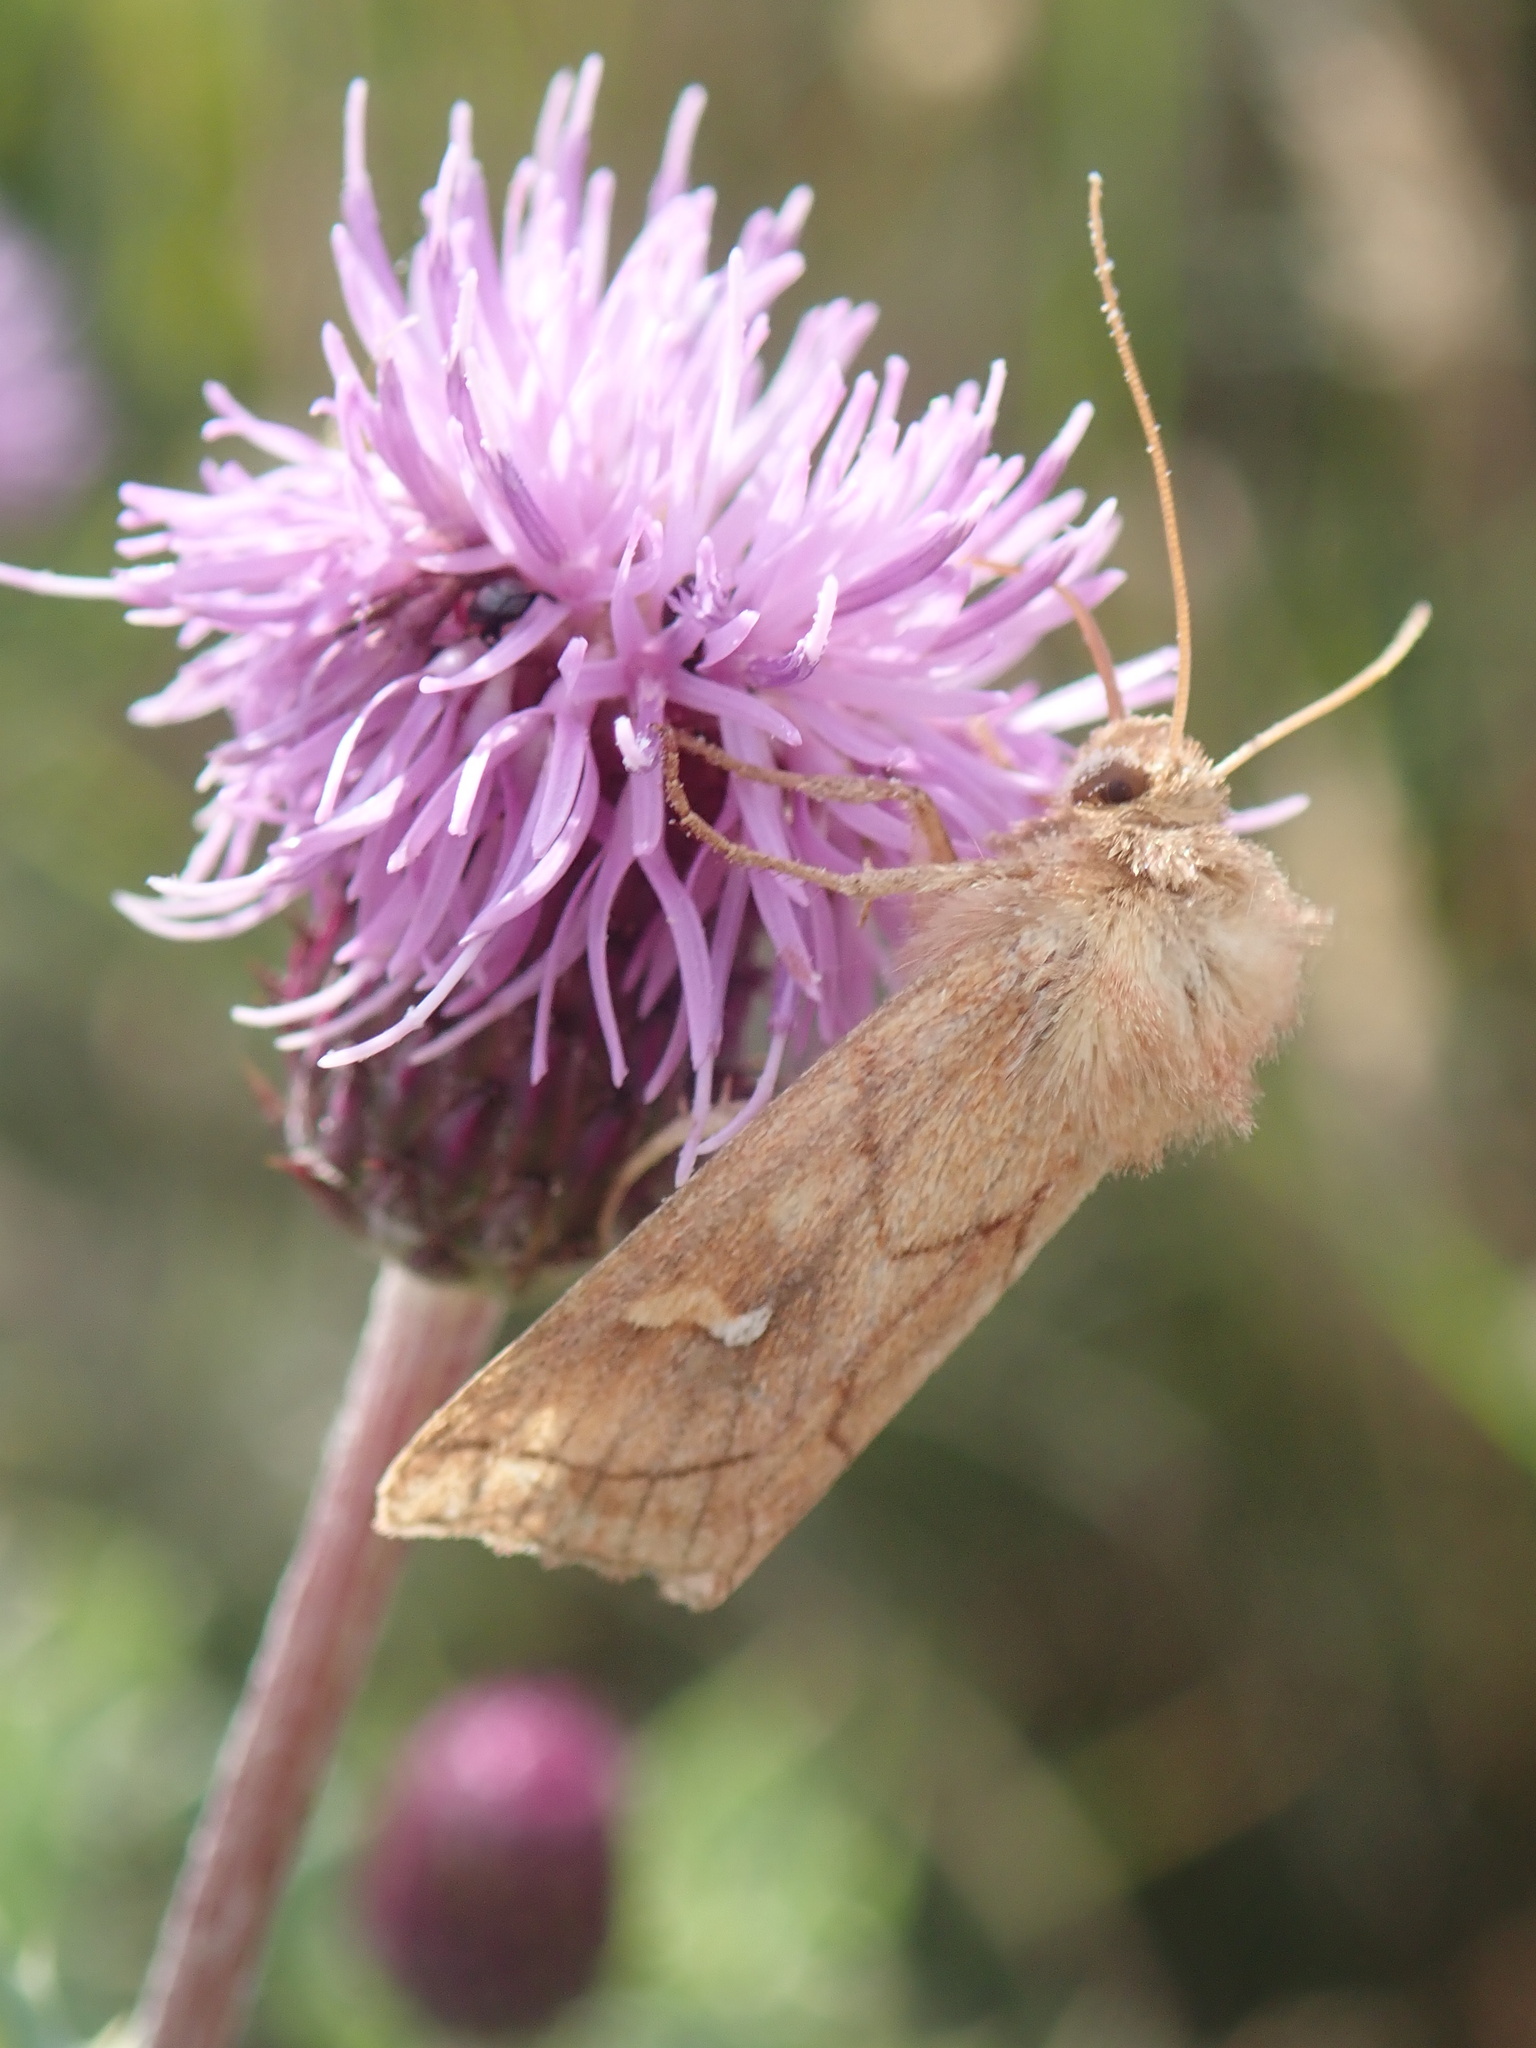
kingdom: Animalia
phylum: Arthropoda
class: Insecta
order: Lepidoptera
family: Noctuidae
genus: Mythimna
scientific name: Mythimna conigera
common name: Brown-line bright-eye
